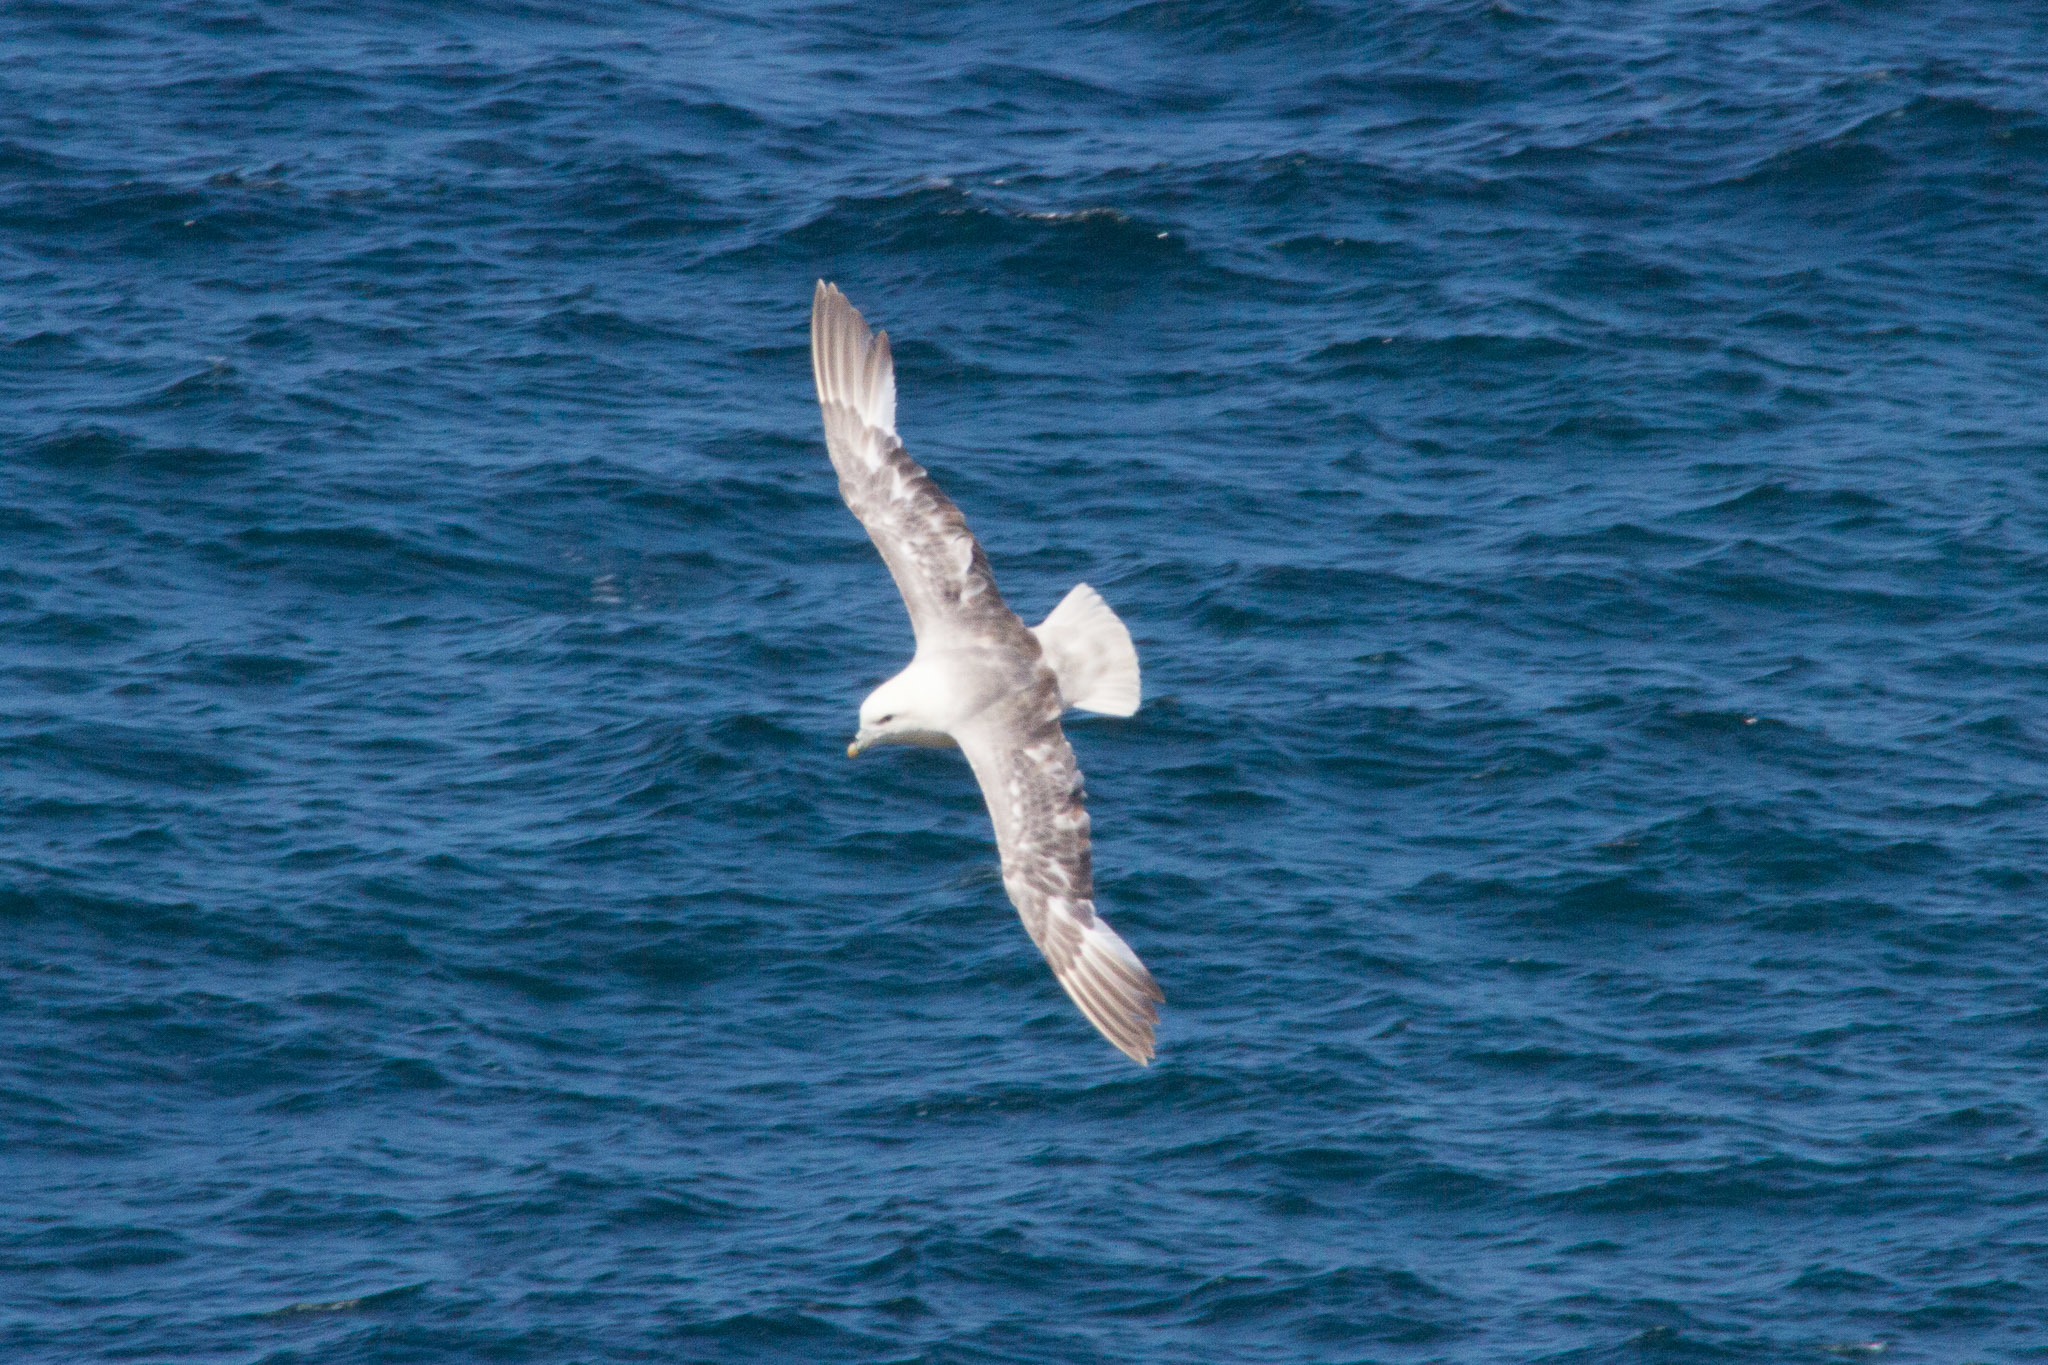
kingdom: Animalia
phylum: Chordata
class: Aves
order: Procellariiformes
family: Procellariidae
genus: Fulmarus
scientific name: Fulmarus glacialis
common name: Northern fulmar
